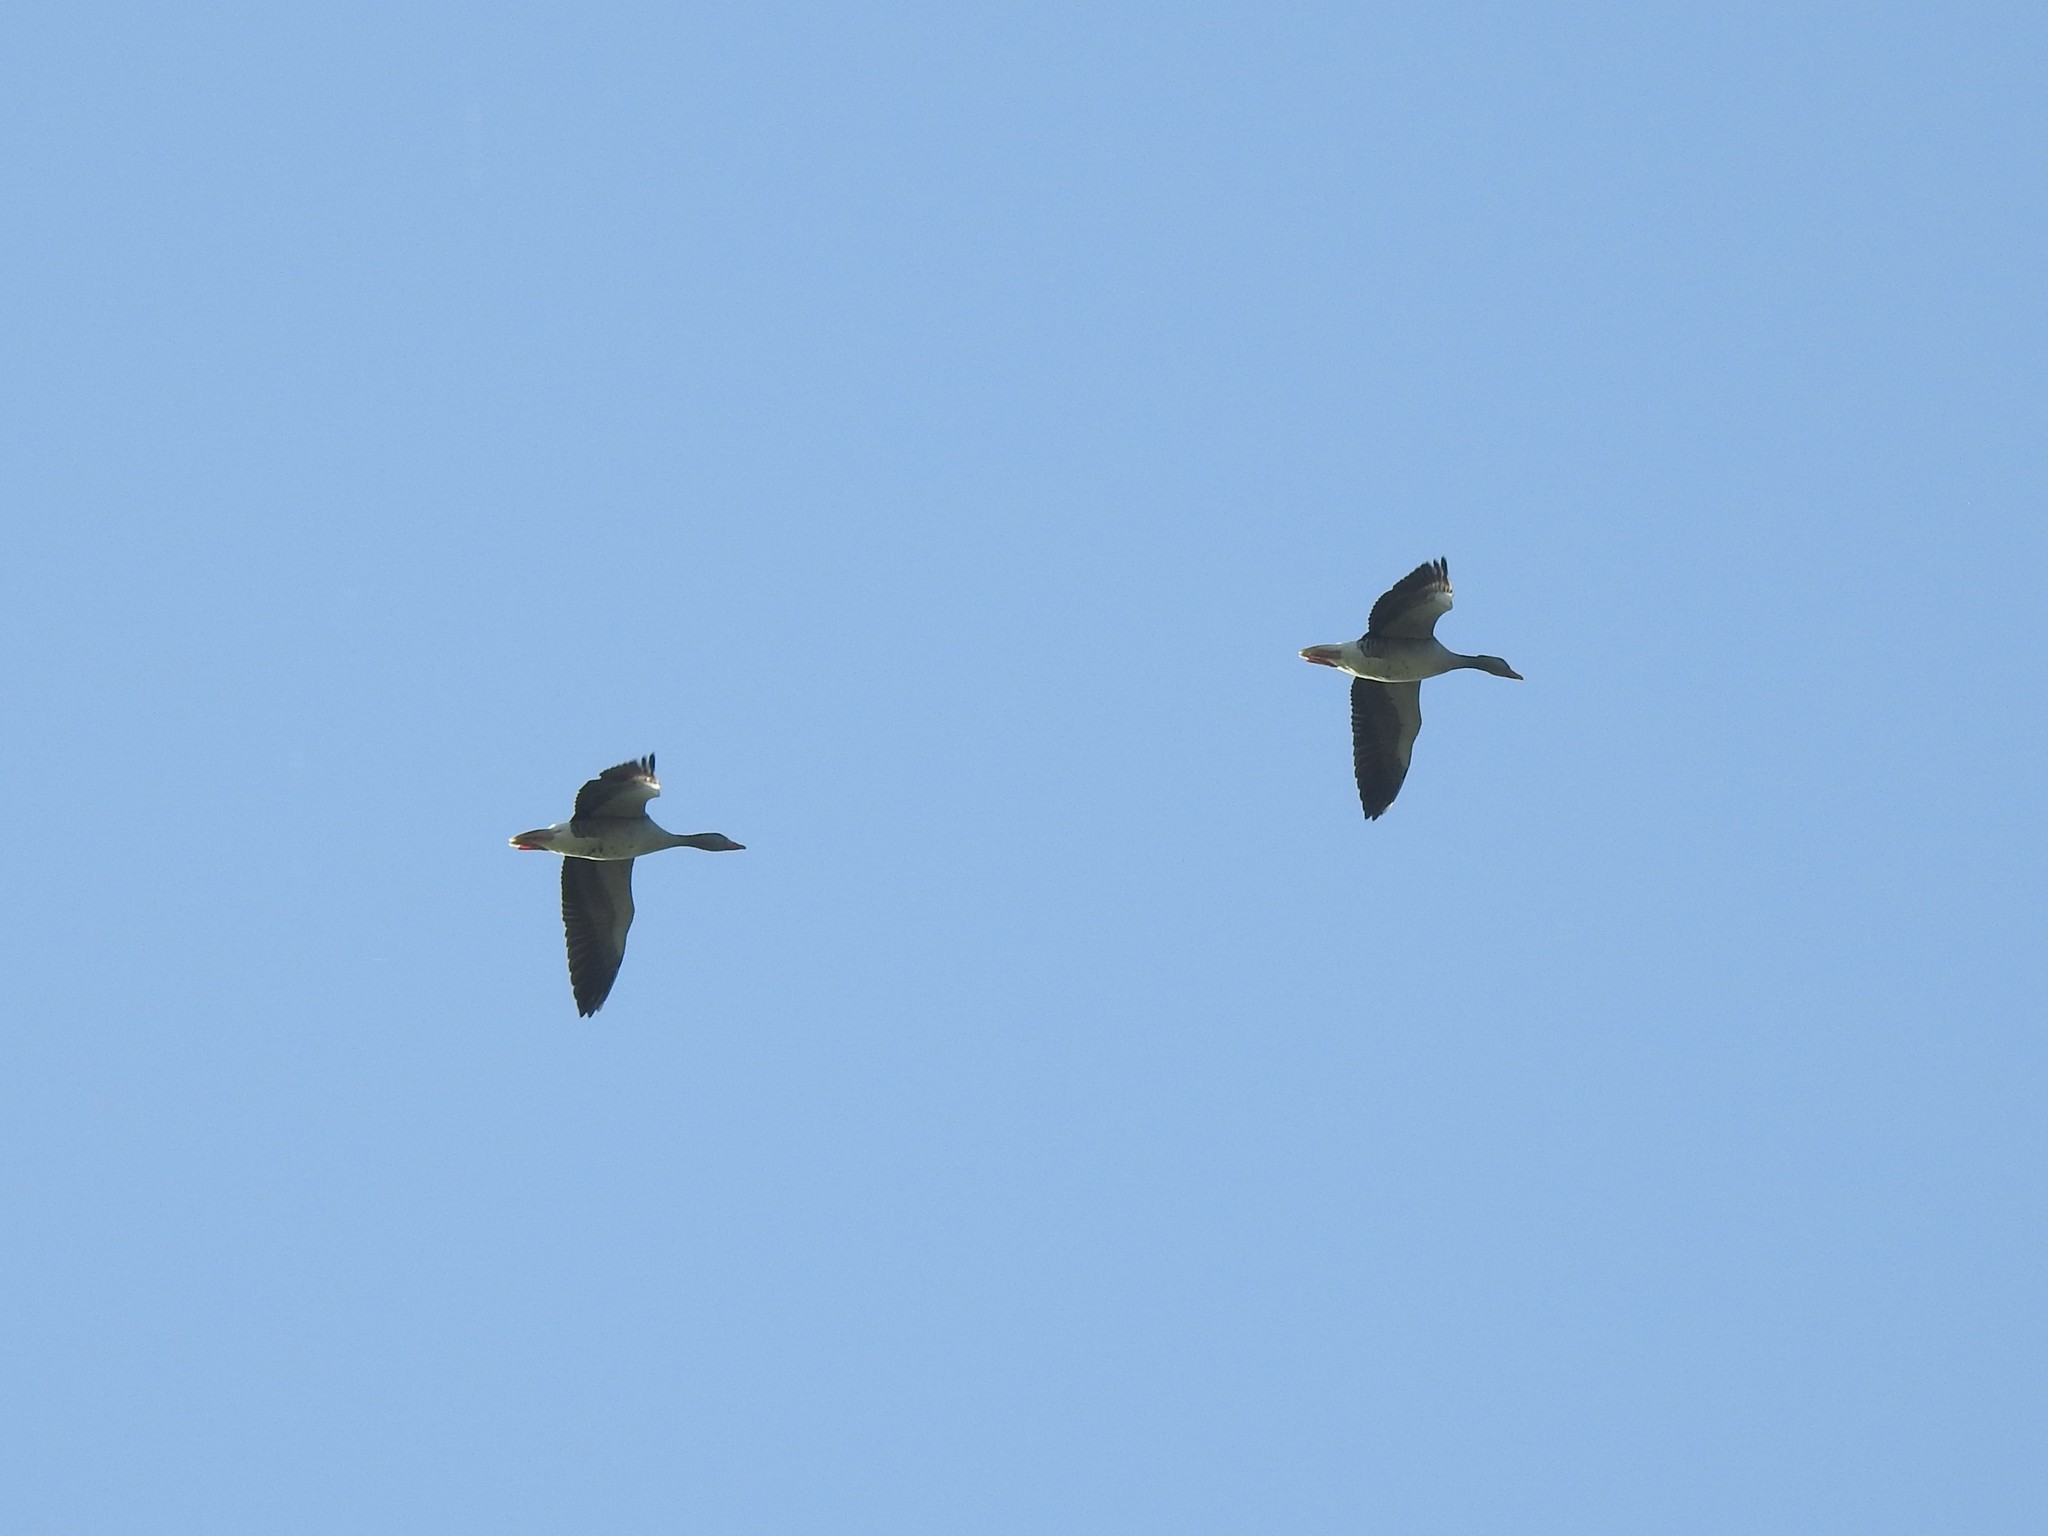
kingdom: Animalia
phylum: Chordata
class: Aves
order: Anseriformes
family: Anatidae
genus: Anser
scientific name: Anser anser
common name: Greylag goose
